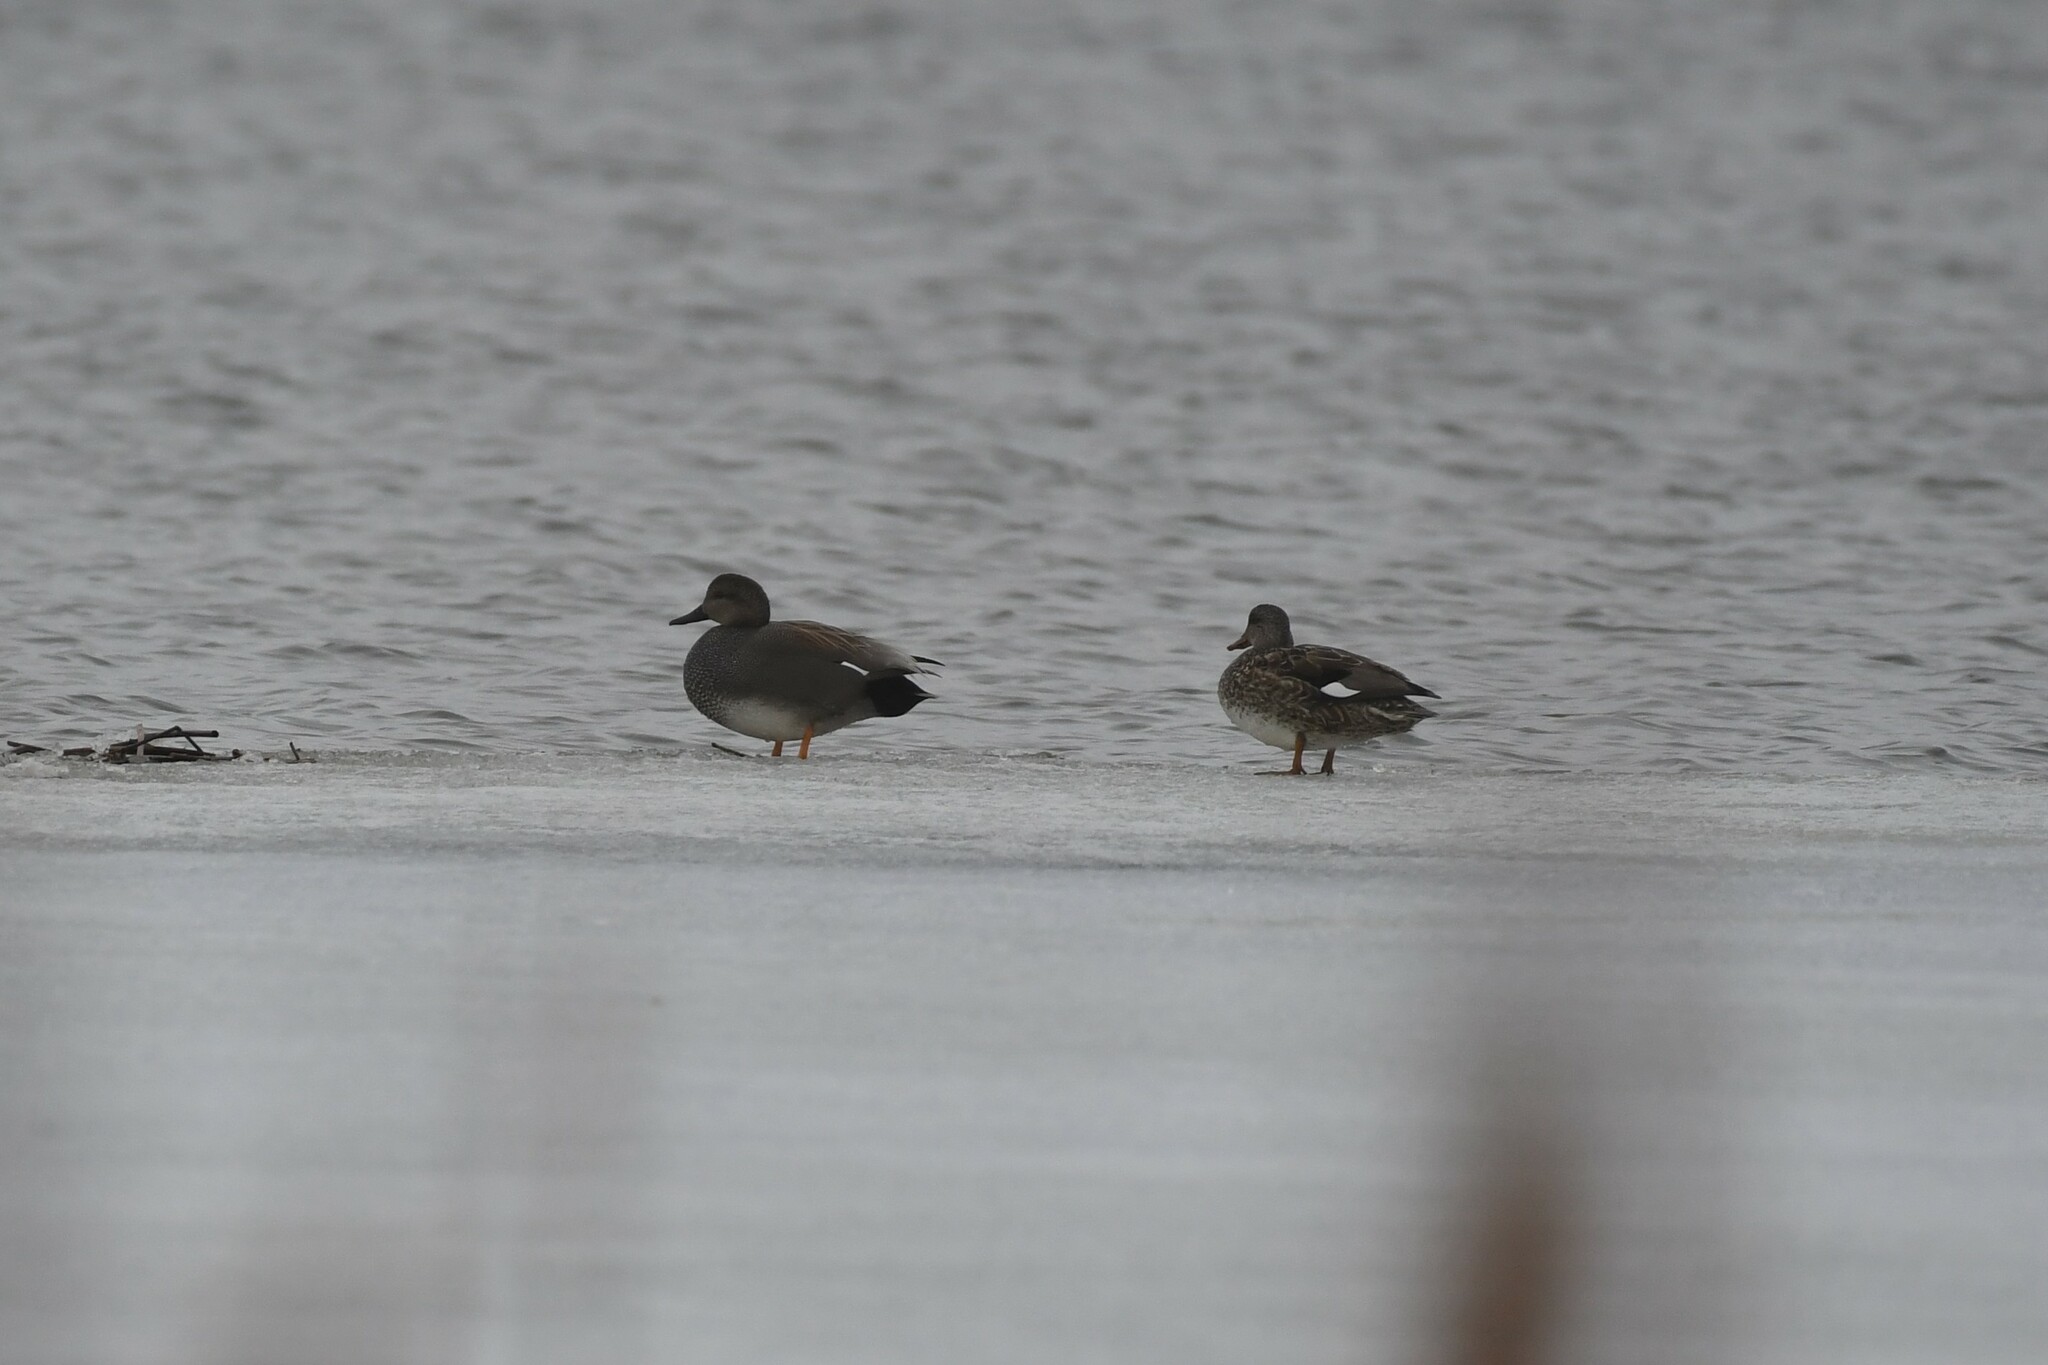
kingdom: Animalia
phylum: Chordata
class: Aves
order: Anseriformes
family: Anatidae
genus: Mareca
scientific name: Mareca strepera
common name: Gadwall
